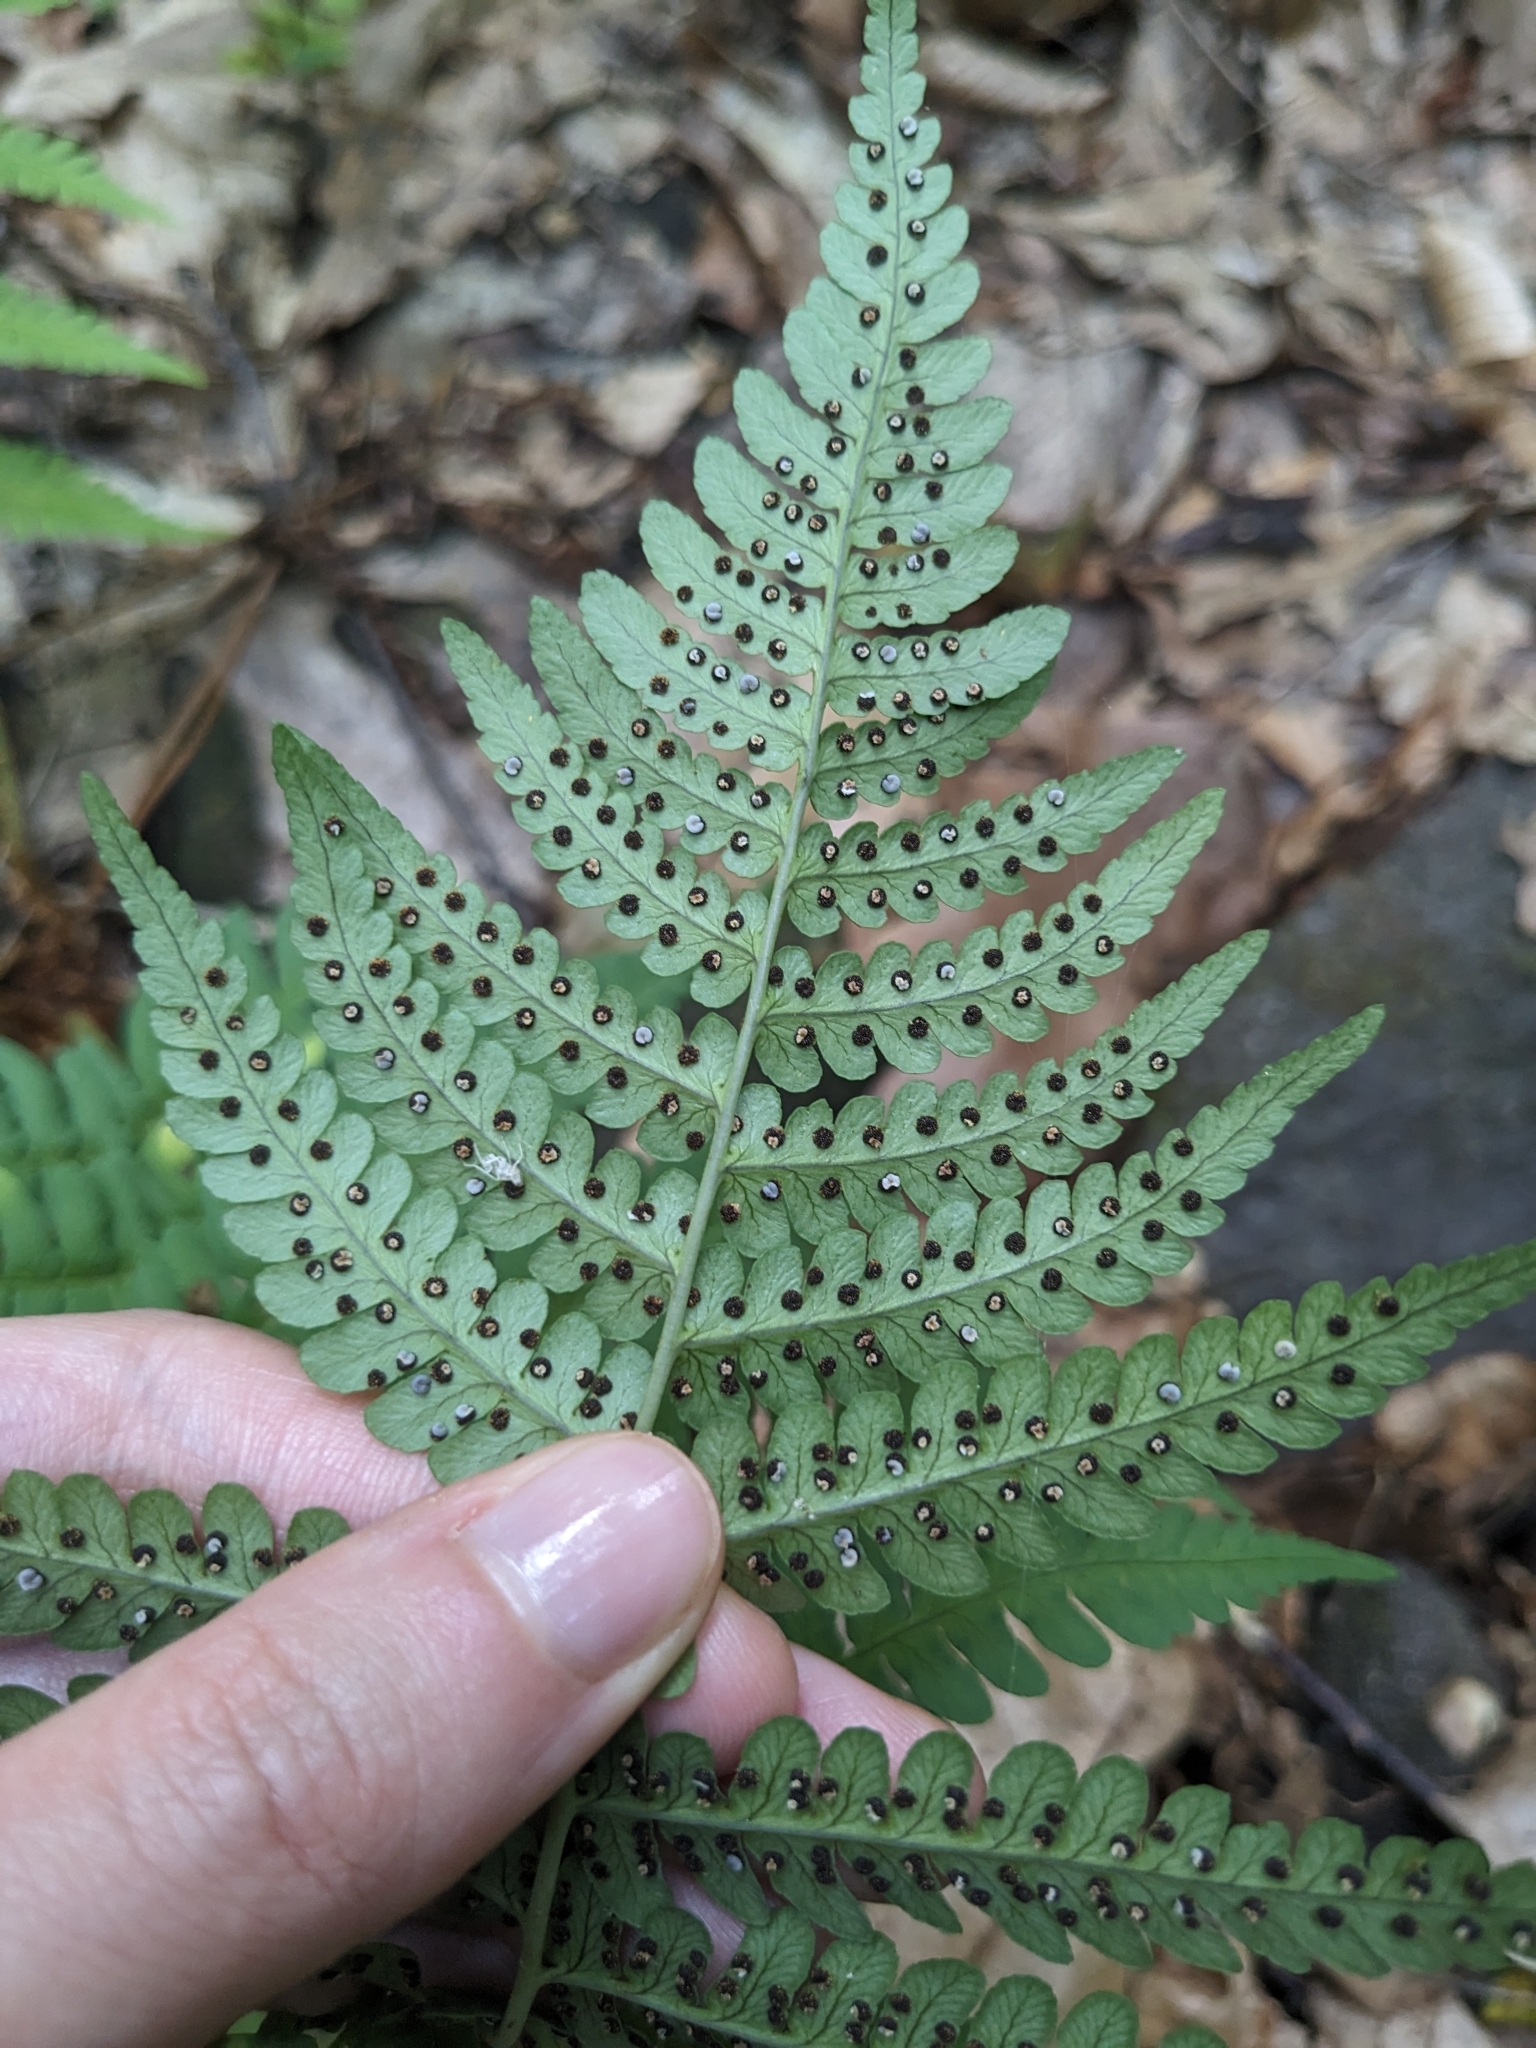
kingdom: Plantae
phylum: Tracheophyta
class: Polypodiopsida
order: Polypodiales
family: Dryopteridaceae
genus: Dryopteris
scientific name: Dryopteris marginalis
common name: Marginal wood fern
